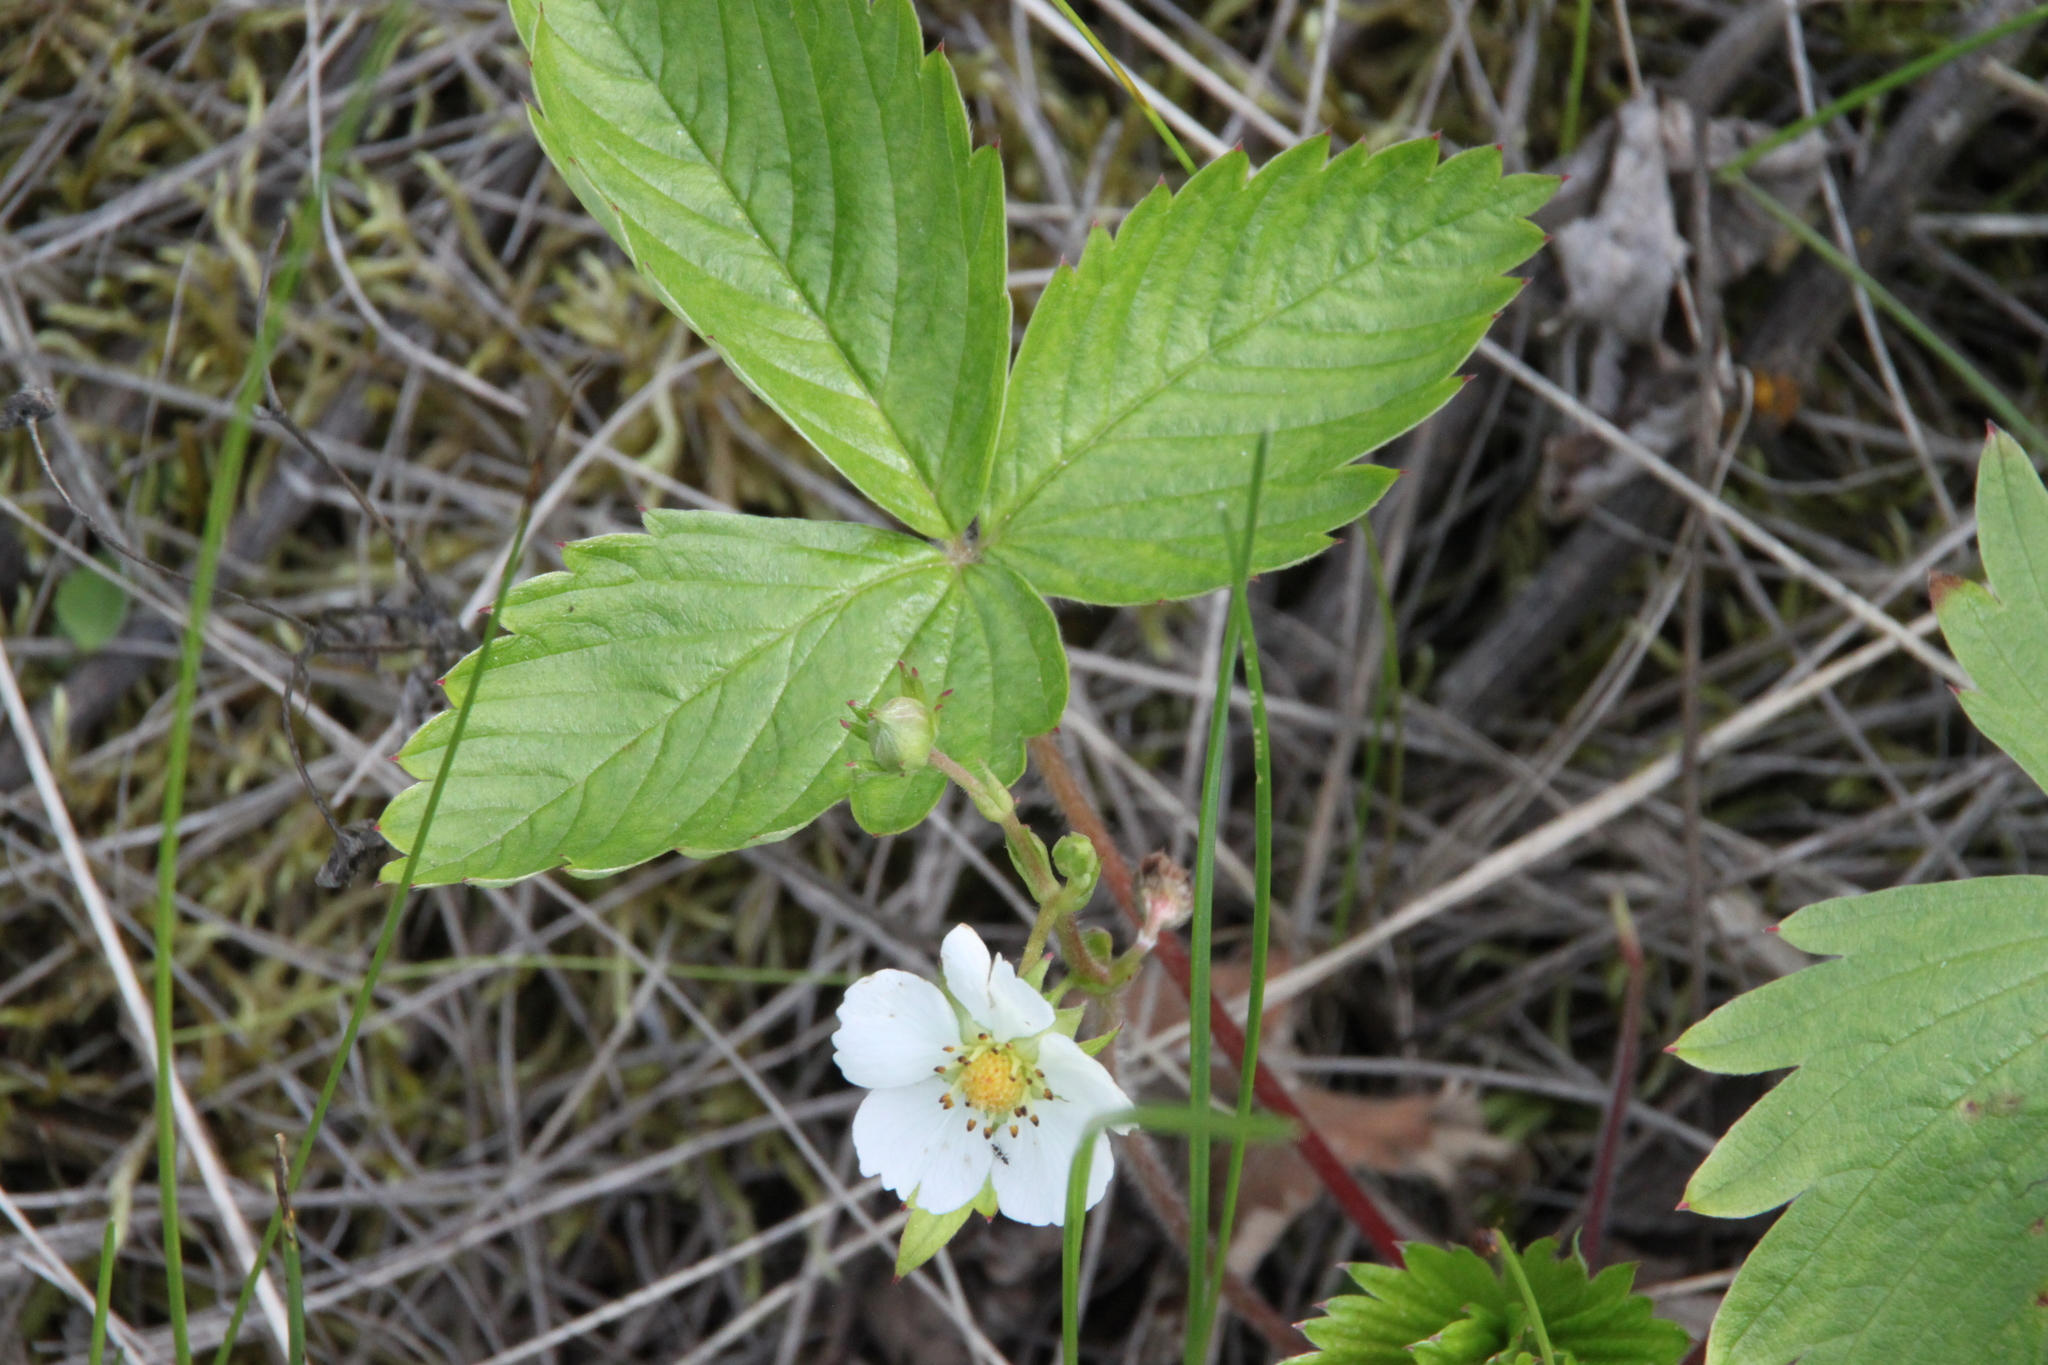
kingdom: Plantae
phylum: Tracheophyta
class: Magnoliopsida
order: Rosales
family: Rosaceae
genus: Fragaria
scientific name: Fragaria viridis
